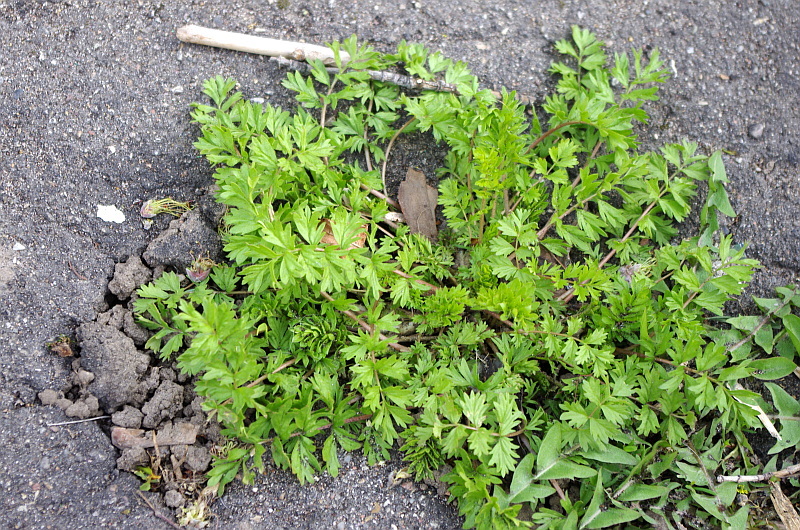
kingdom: Plantae
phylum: Tracheophyta
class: Magnoliopsida
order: Rosales
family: Rosaceae
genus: Potentilla
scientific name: Potentilla supina
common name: Prostrate cinquefoil
